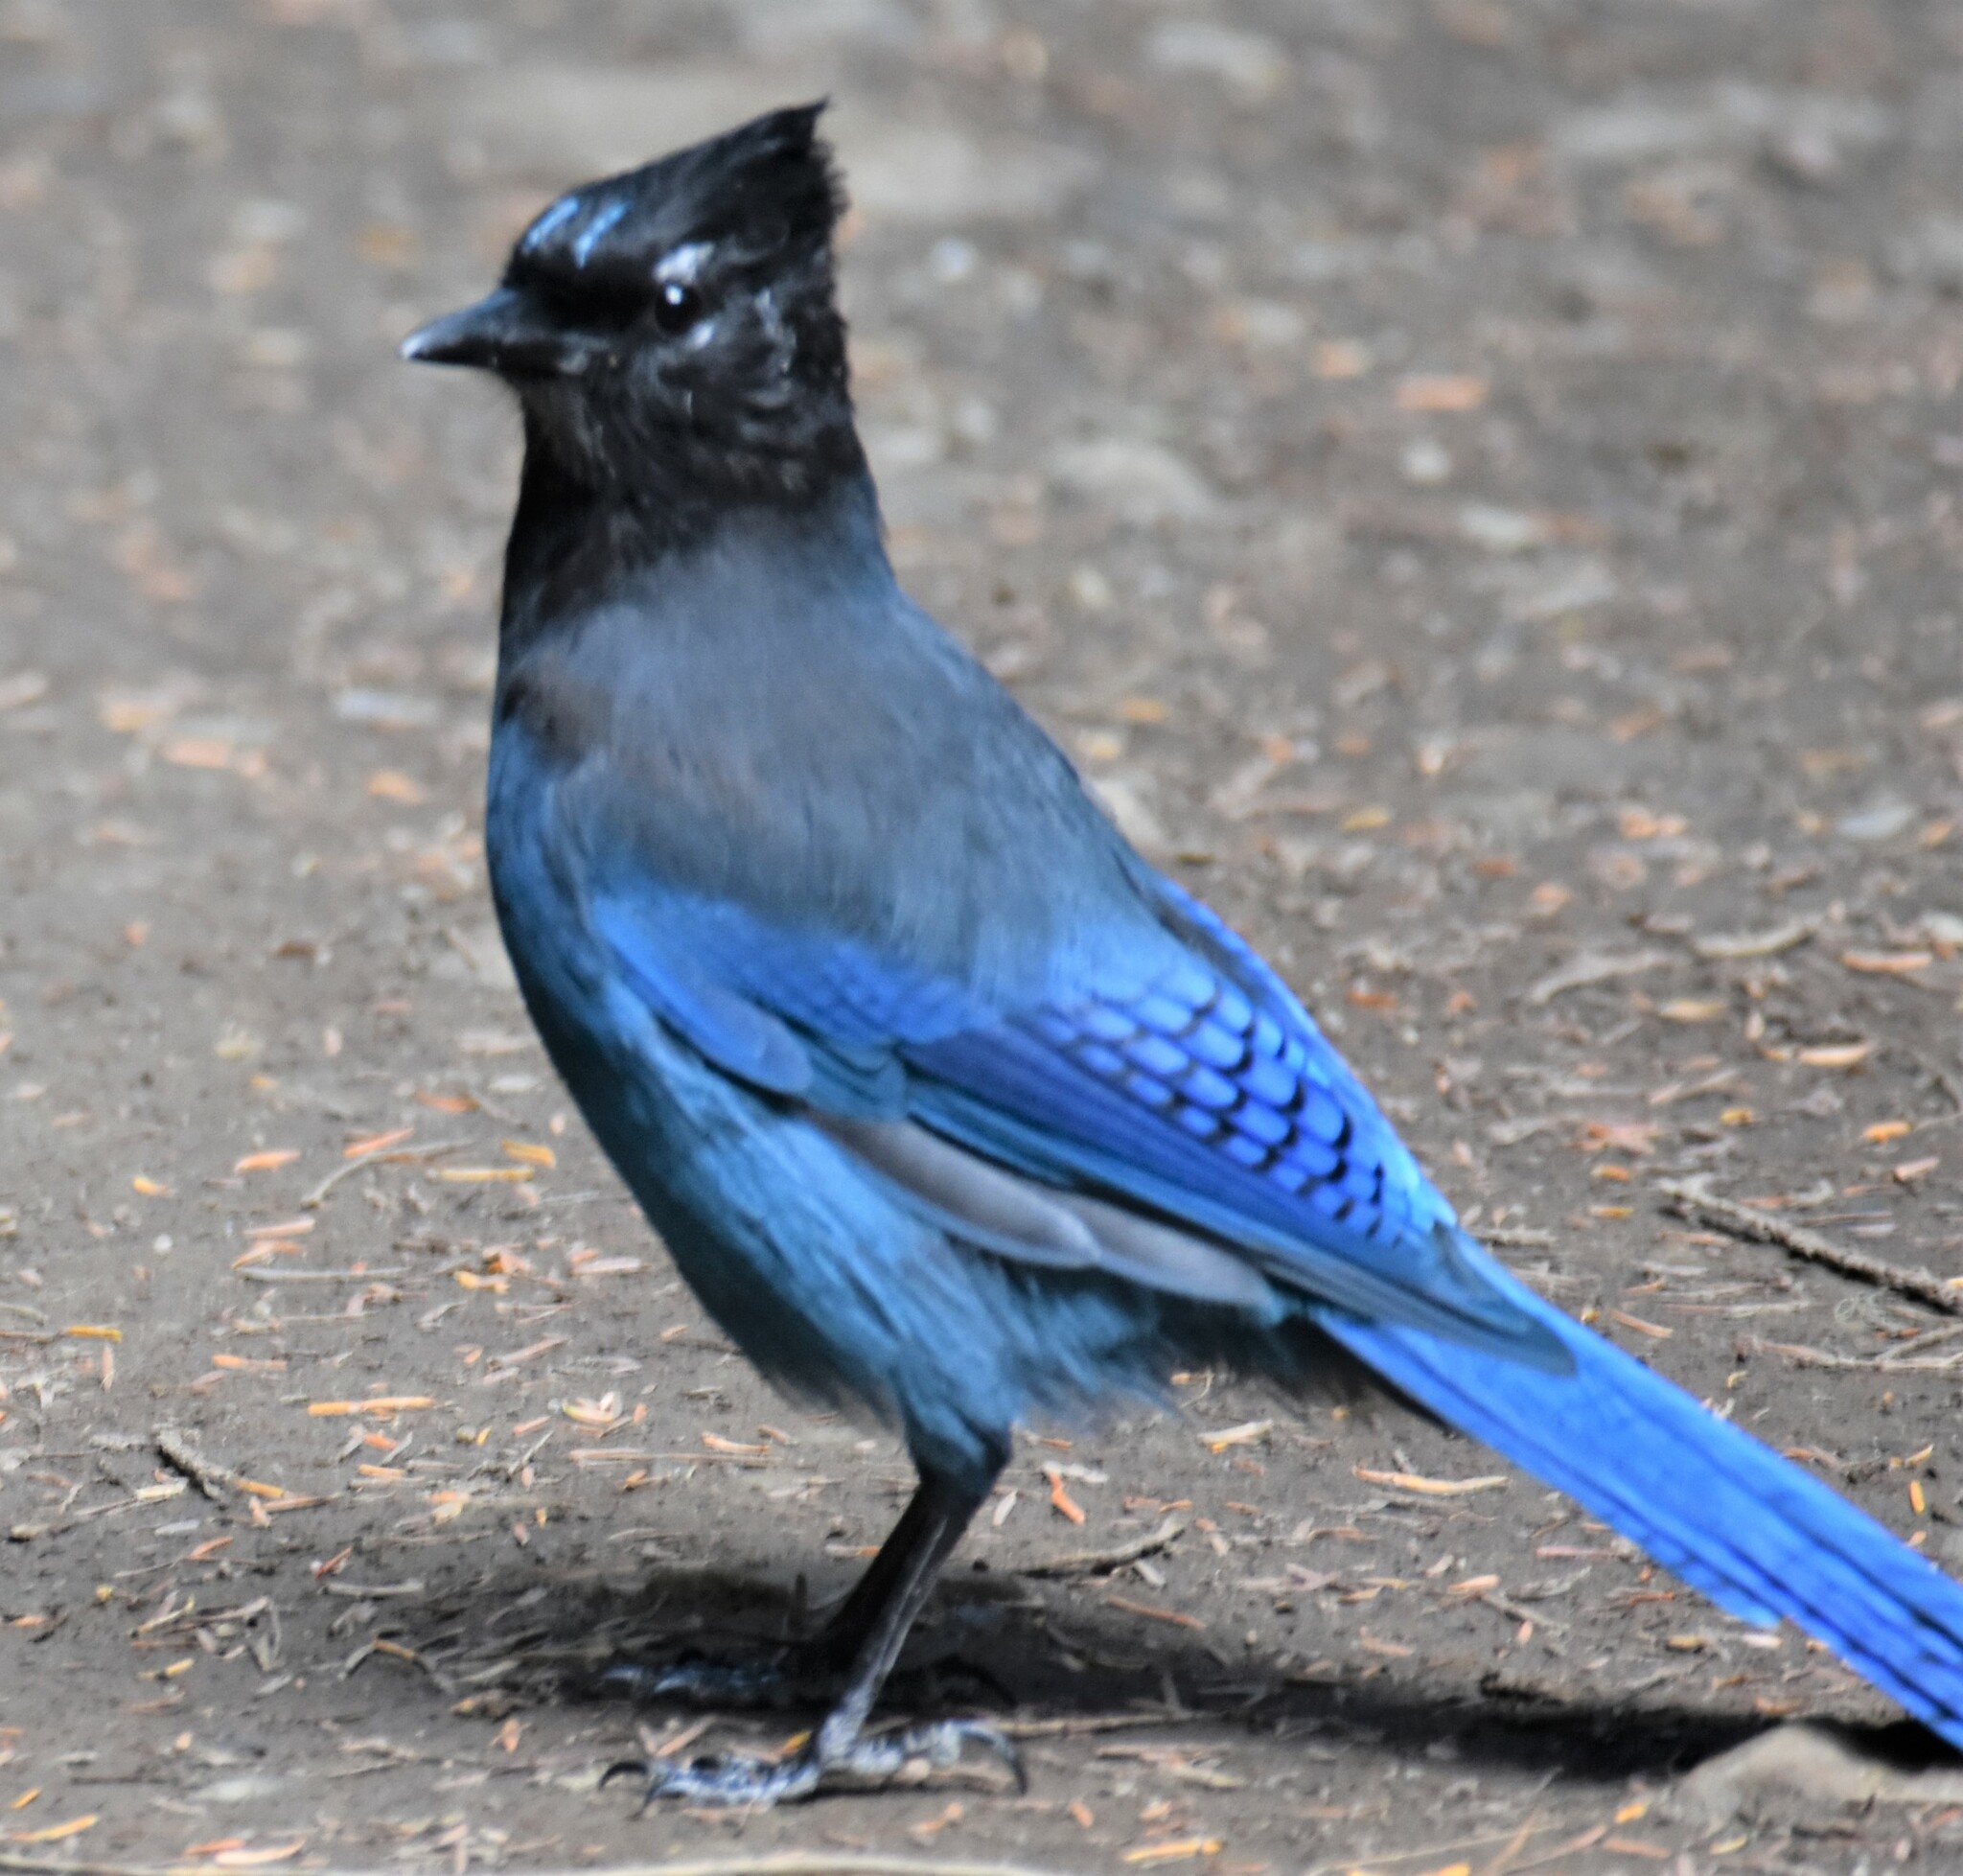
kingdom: Animalia
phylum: Chordata
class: Aves
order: Passeriformes
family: Corvidae
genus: Cyanocitta
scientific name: Cyanocitta stelleri
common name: Steller's jay
